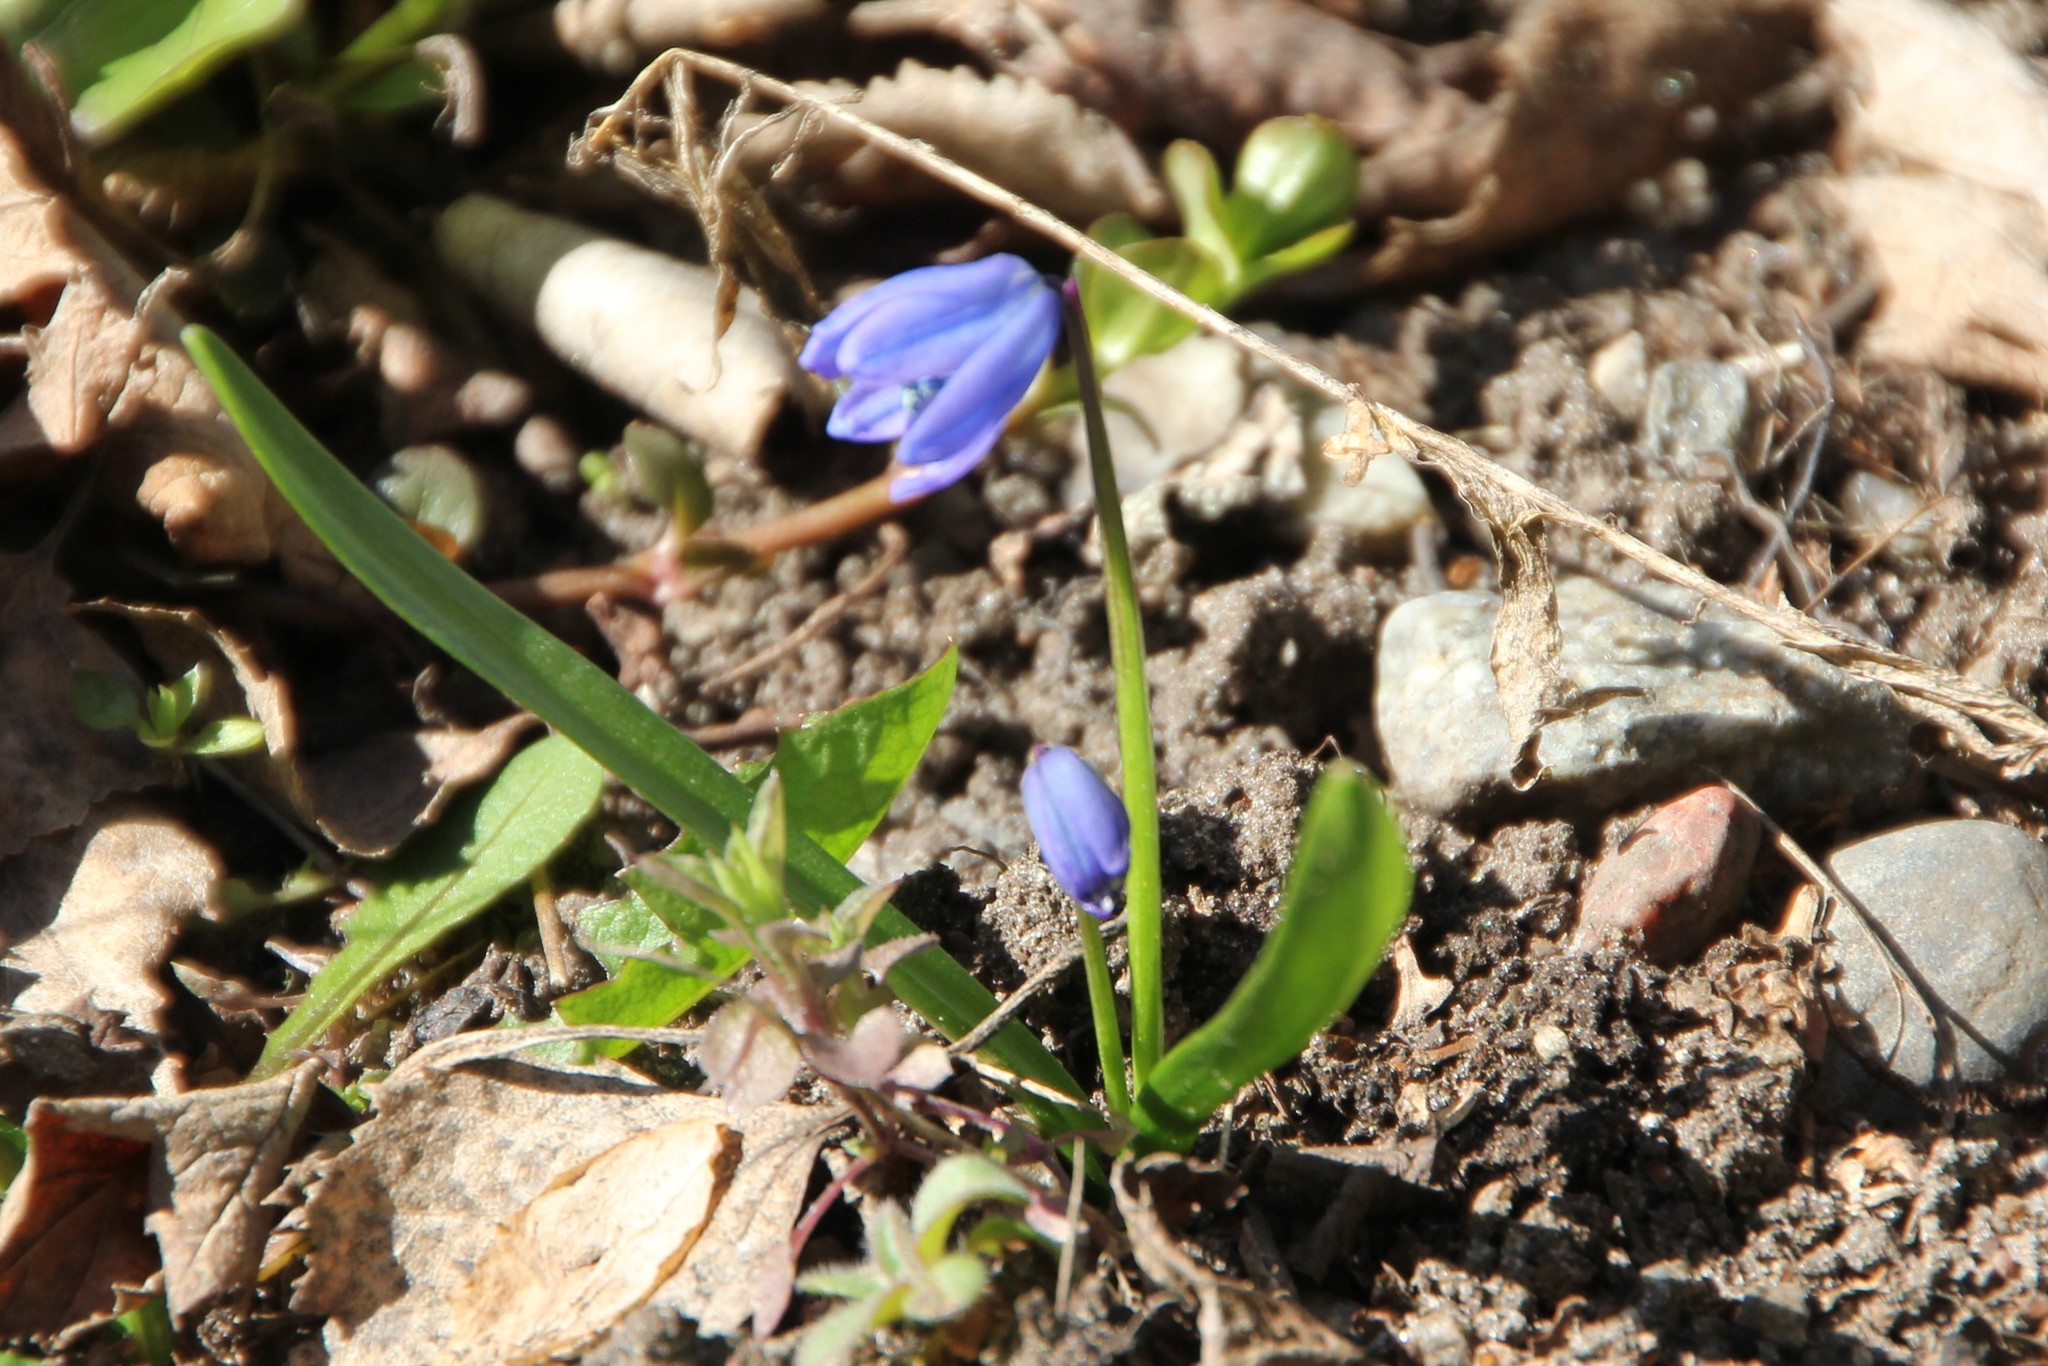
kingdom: Plantae
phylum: Tracheophyta
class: Liliopsida
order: Asparagales
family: Asparagaceae
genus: Scilla
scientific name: Scilla siberica
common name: Siberian squill
